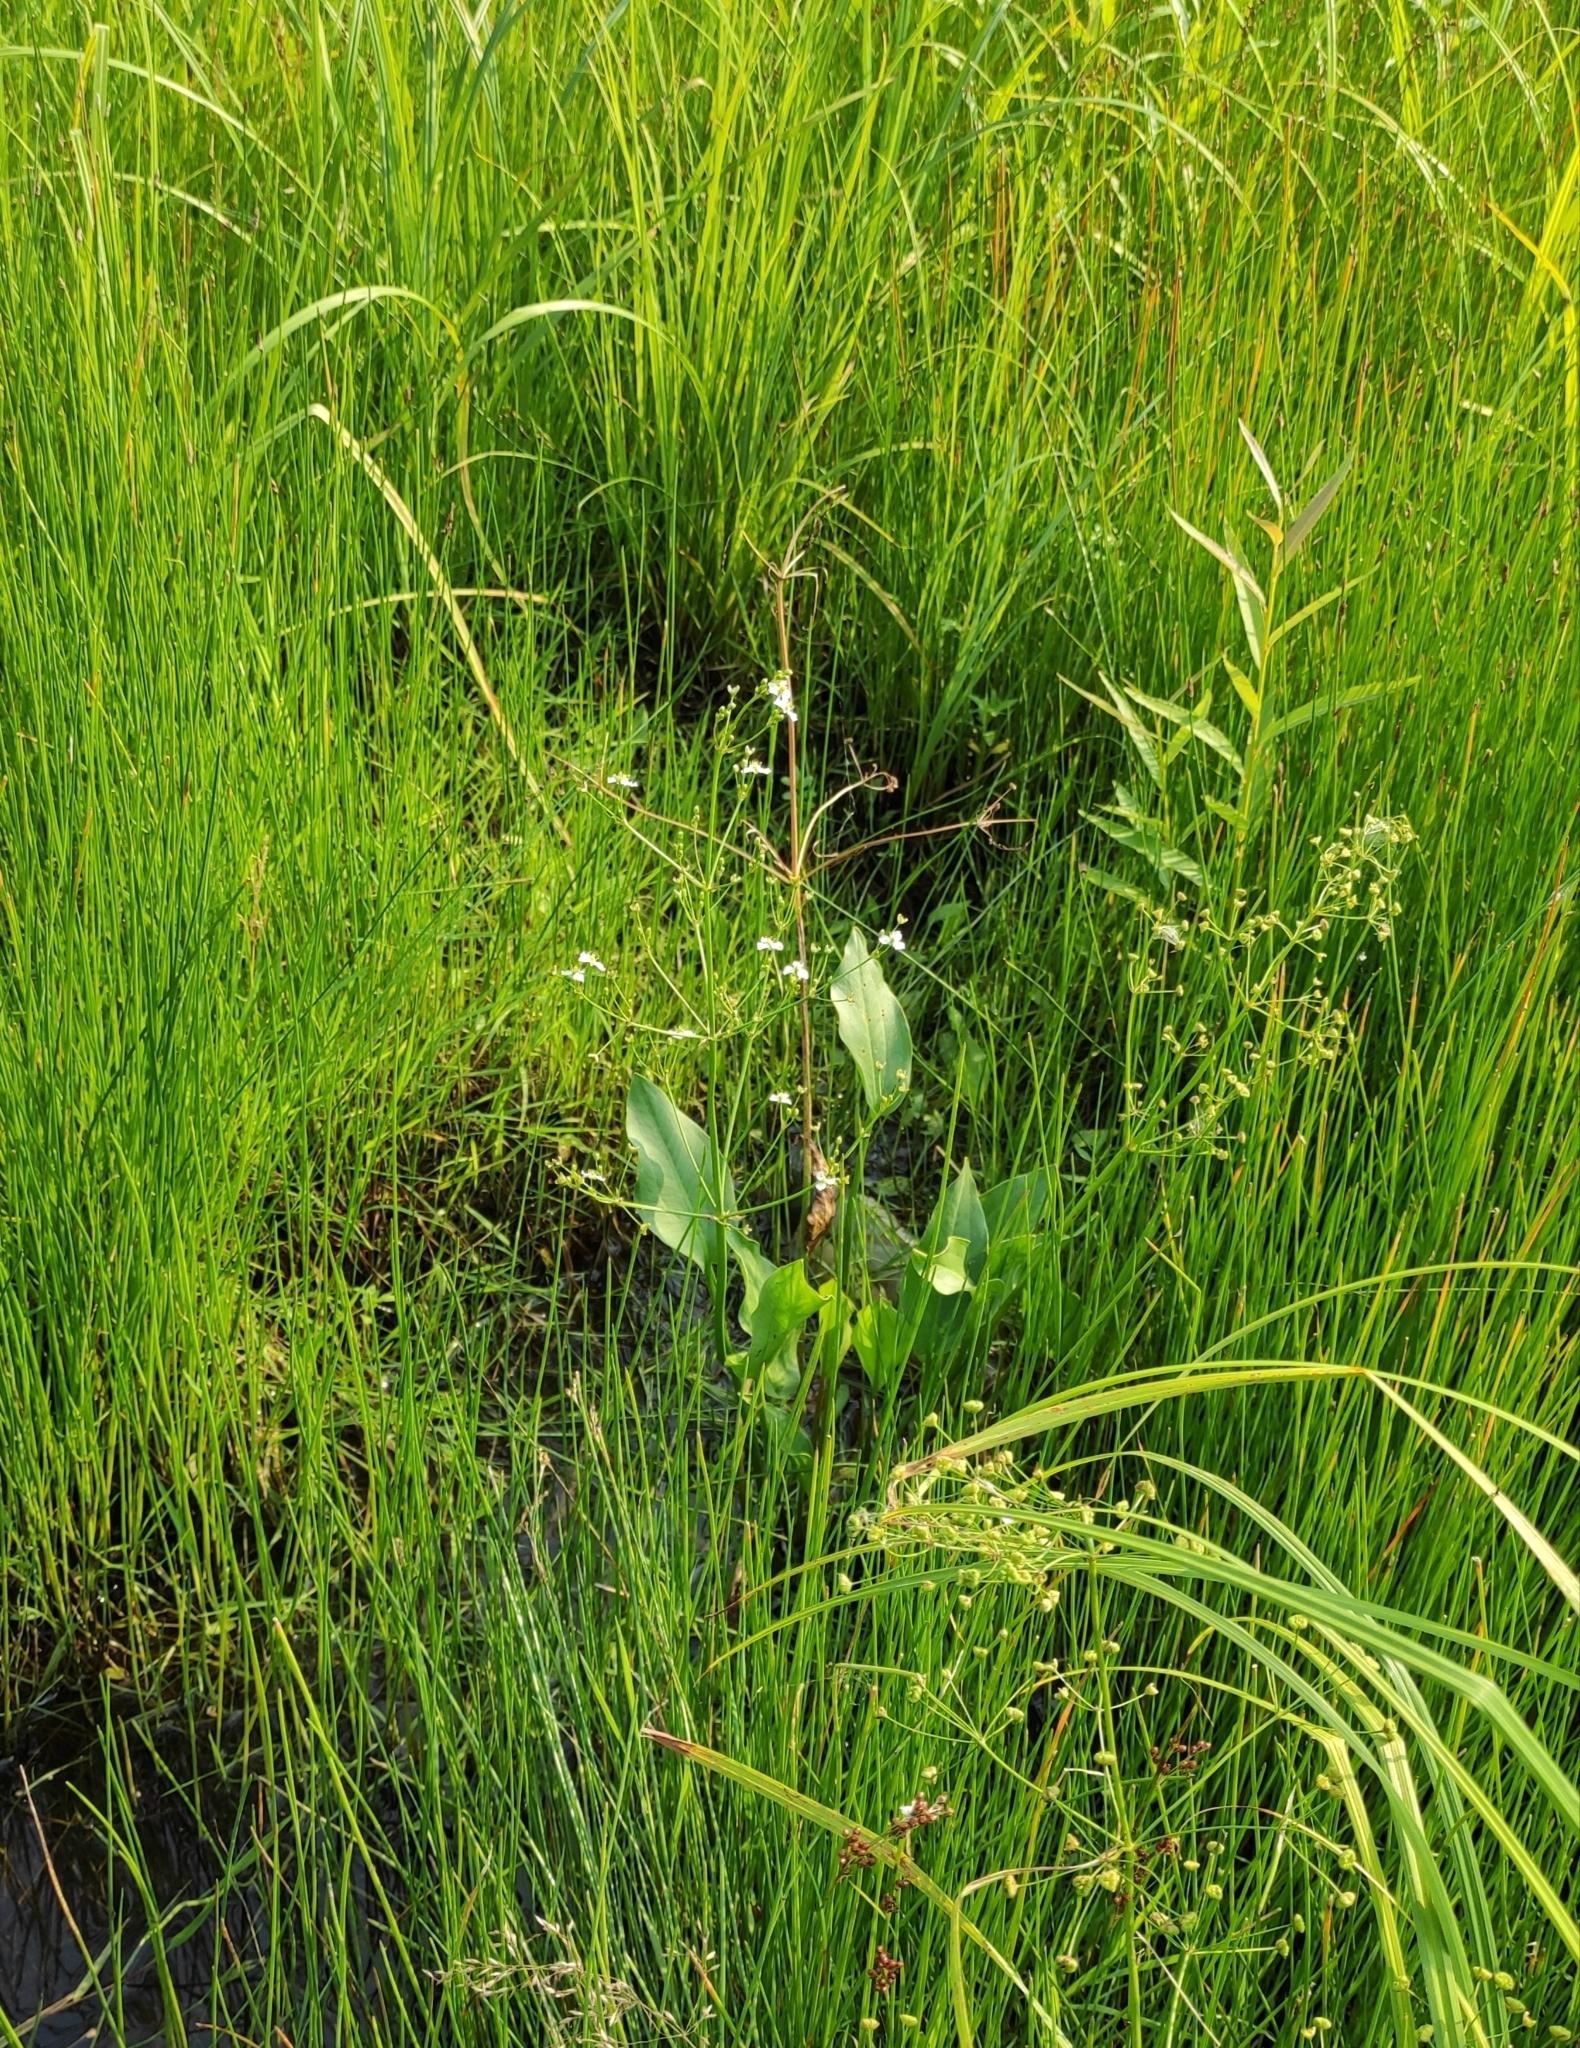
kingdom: Plantae
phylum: Tracheophyta
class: Liliopsida
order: Alismatales
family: Alismataceae
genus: Alisma
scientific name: Alisma plantago-aquatica
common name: Water-plantain
